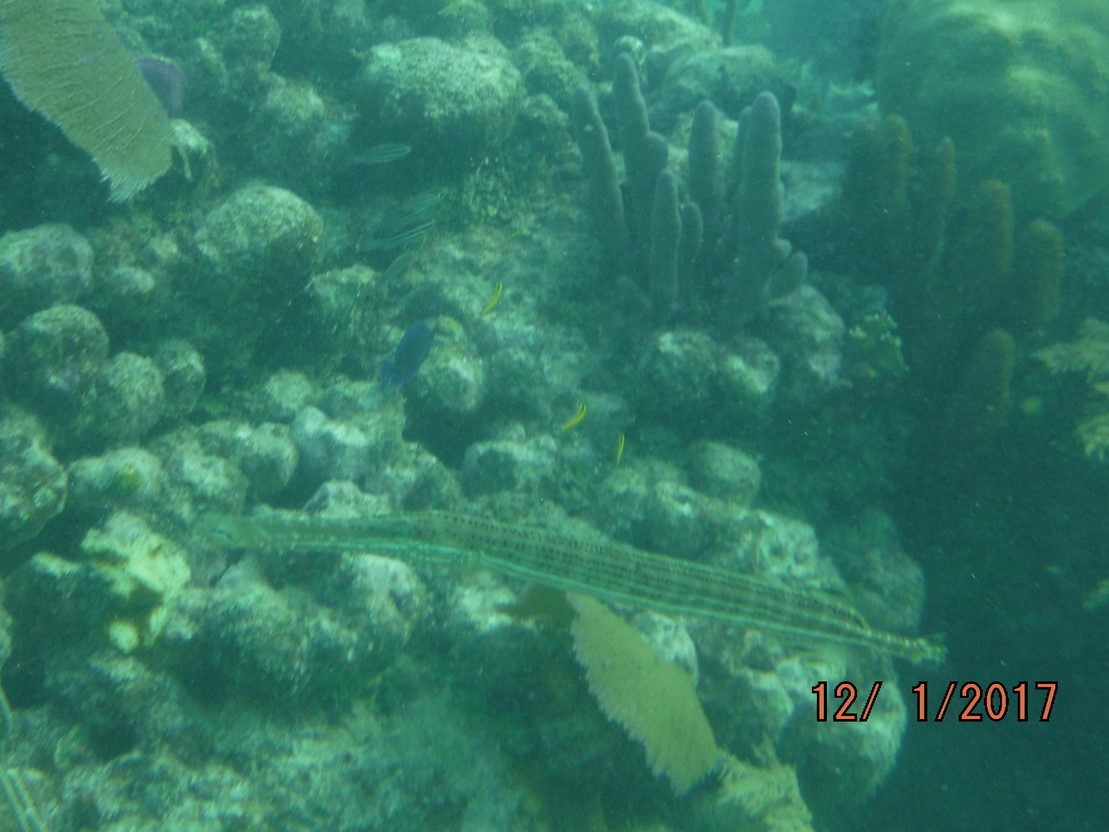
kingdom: Animalia
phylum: Chordata
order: Syngnathiformes
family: Aulostomidae
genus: Aulostomus
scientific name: Aulostomus maculatus
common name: West atlantic trumpetfish
